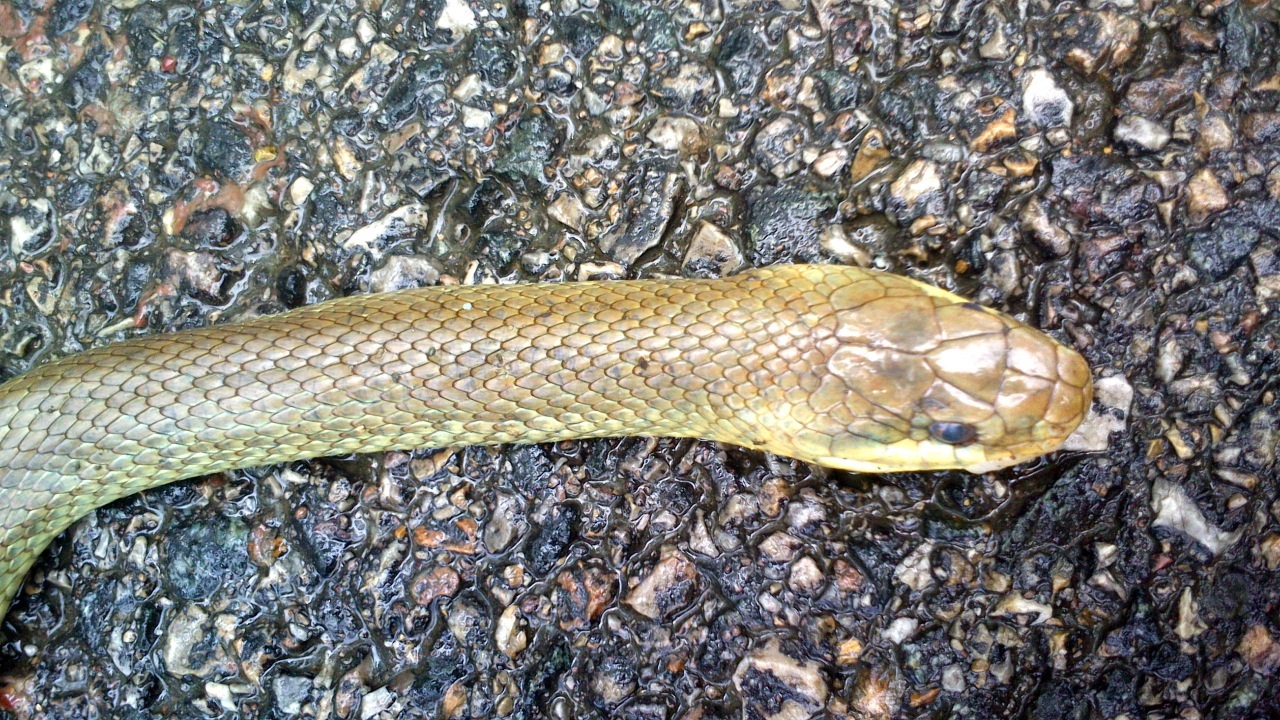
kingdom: Animalia
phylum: Chordata
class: Squamata
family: Colubridae
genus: Zamenis
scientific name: Zamenis longissimus
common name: Aesculapean snake
